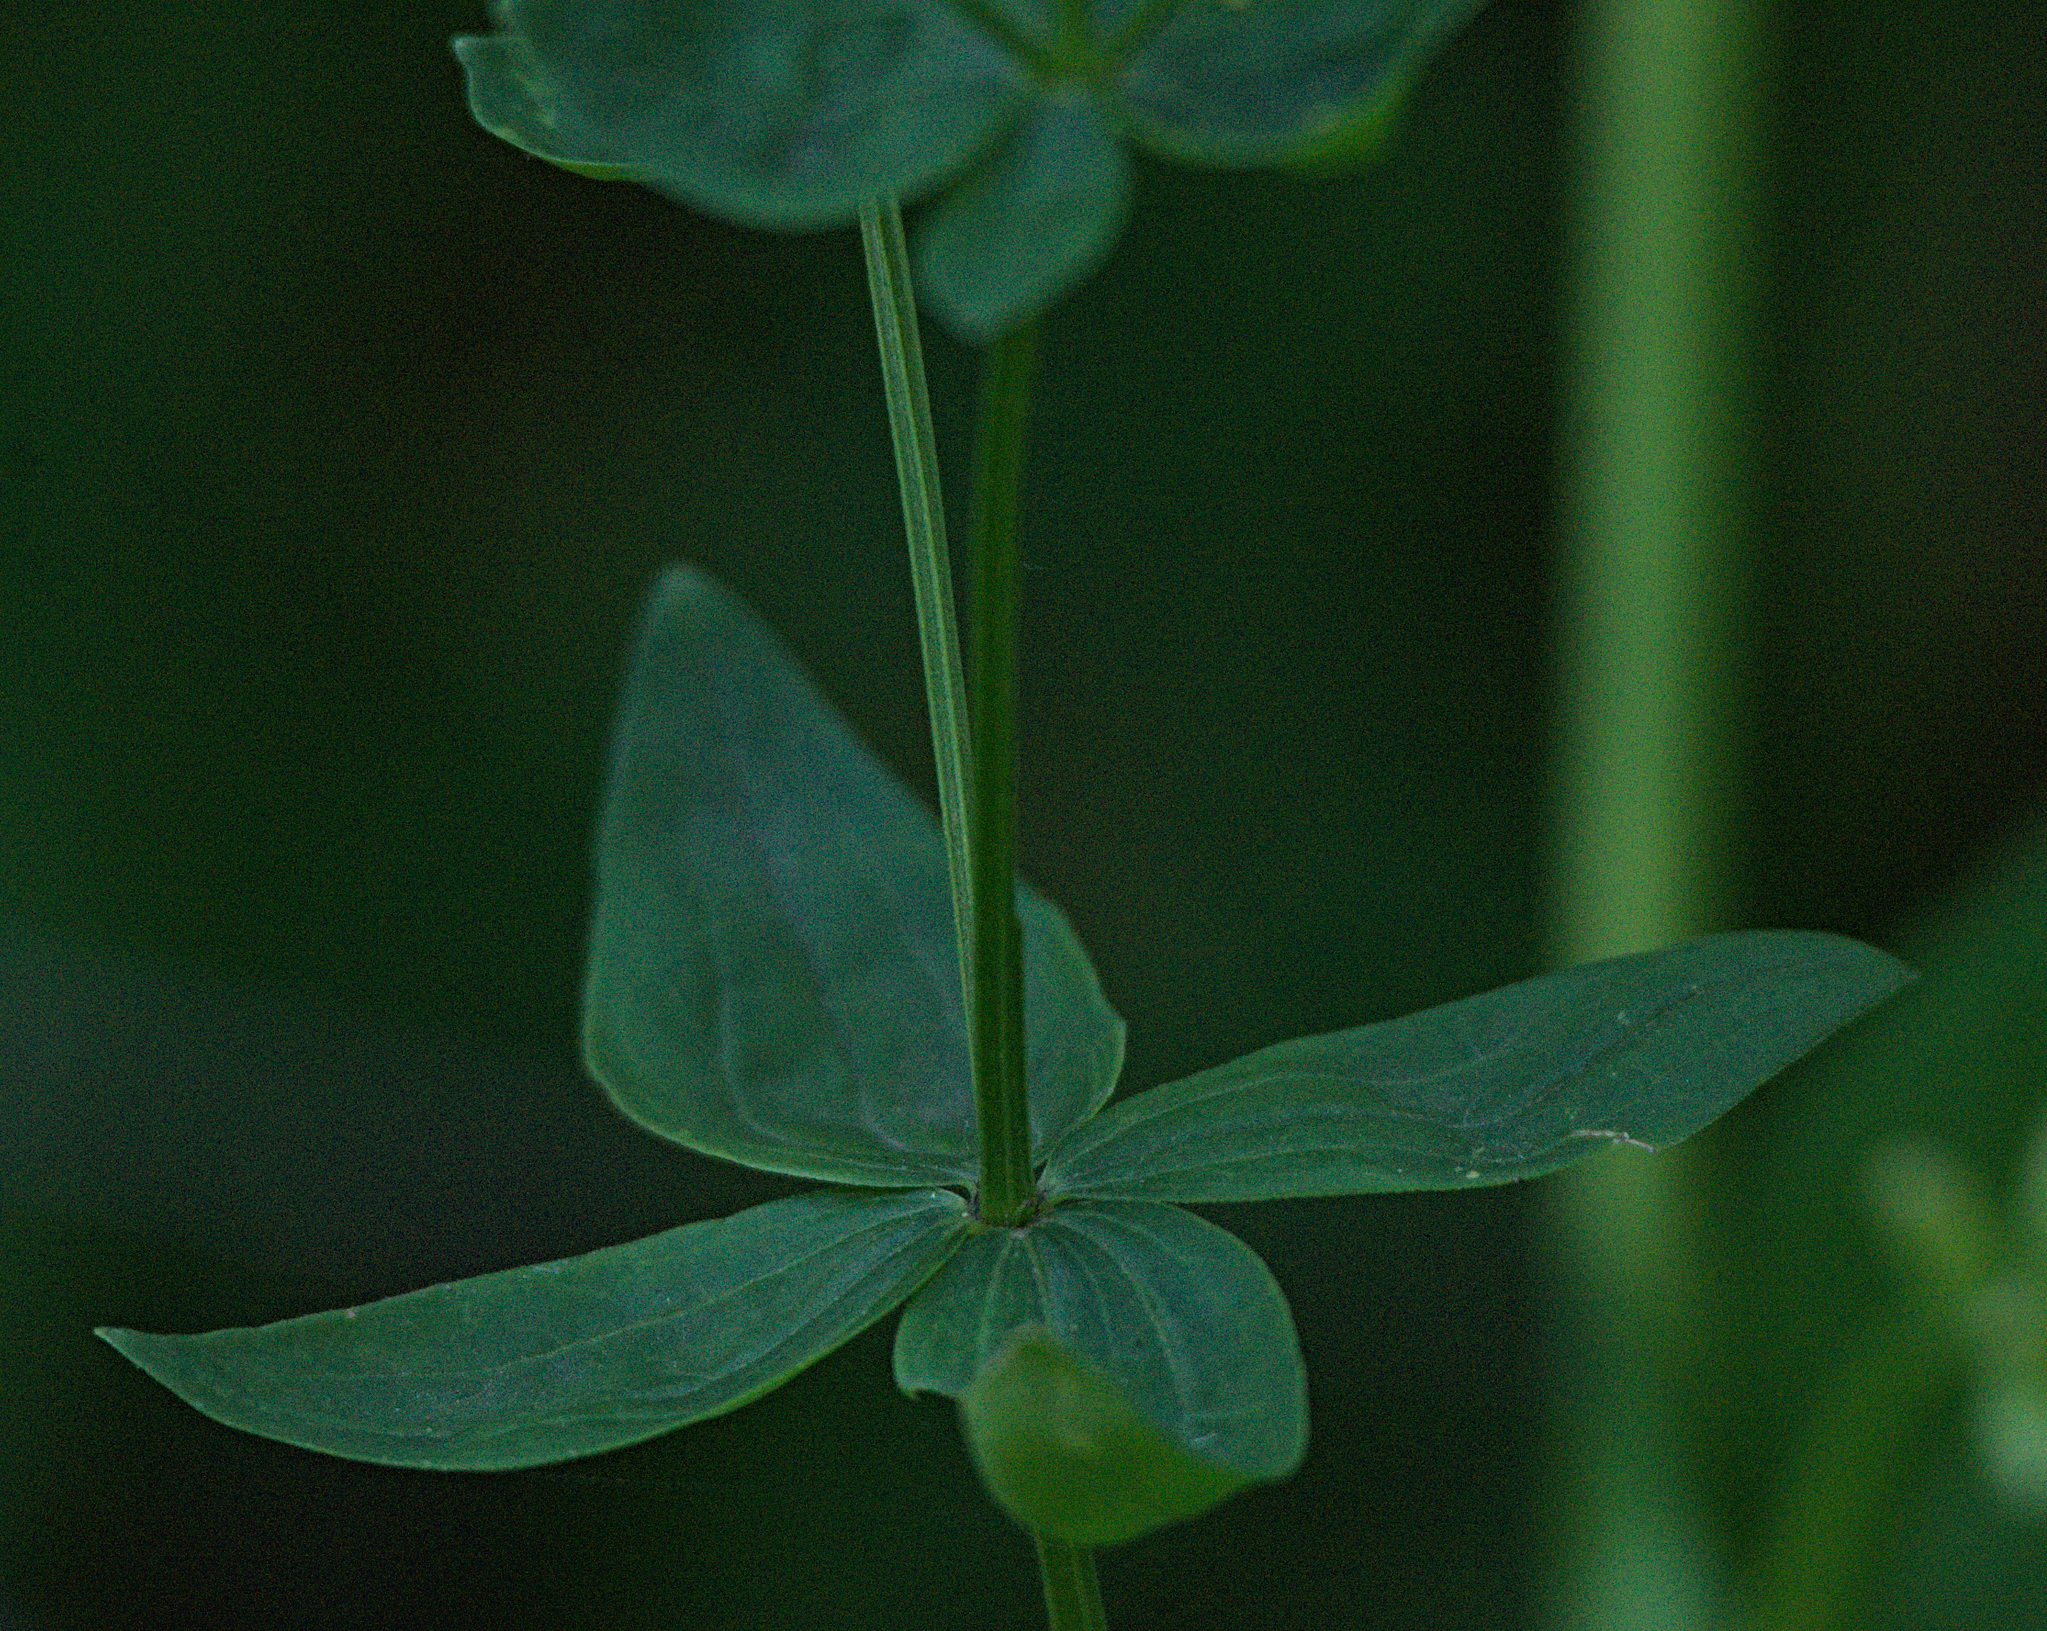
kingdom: Plantae
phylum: Tracheophyta
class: Magnoliopsida
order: Gentianales
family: Rubiaceae
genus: Galium
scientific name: Galium boreale
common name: Northern bedstraw
